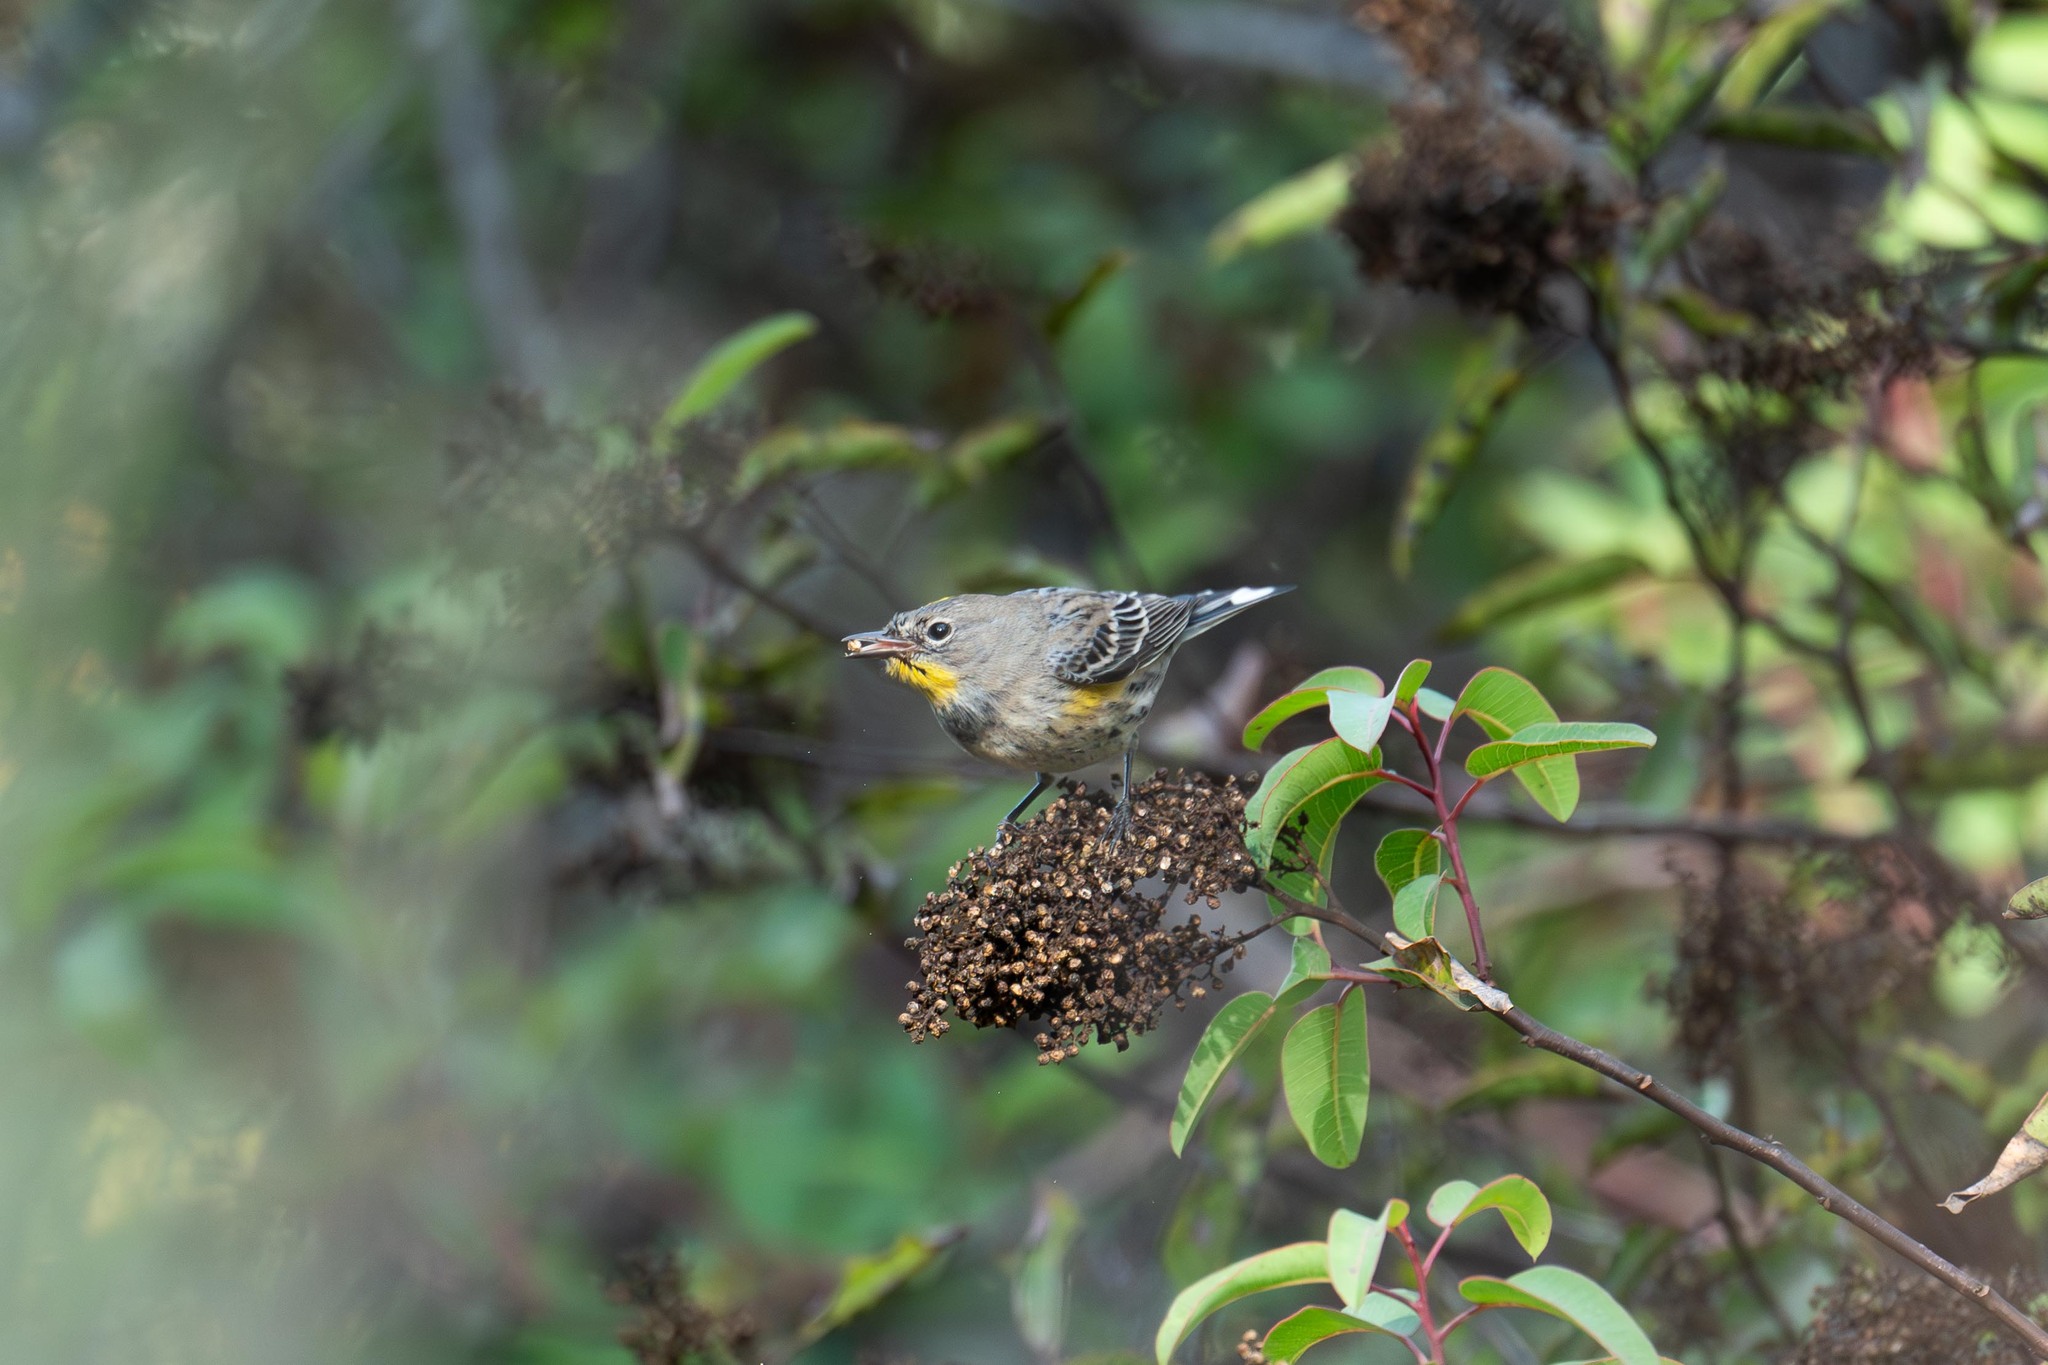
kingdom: Animalia
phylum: Chordata
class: Aves
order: Passeriformes
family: Parulidae
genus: Setophaga
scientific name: Setophaga coronata
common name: Myrtle warbler
